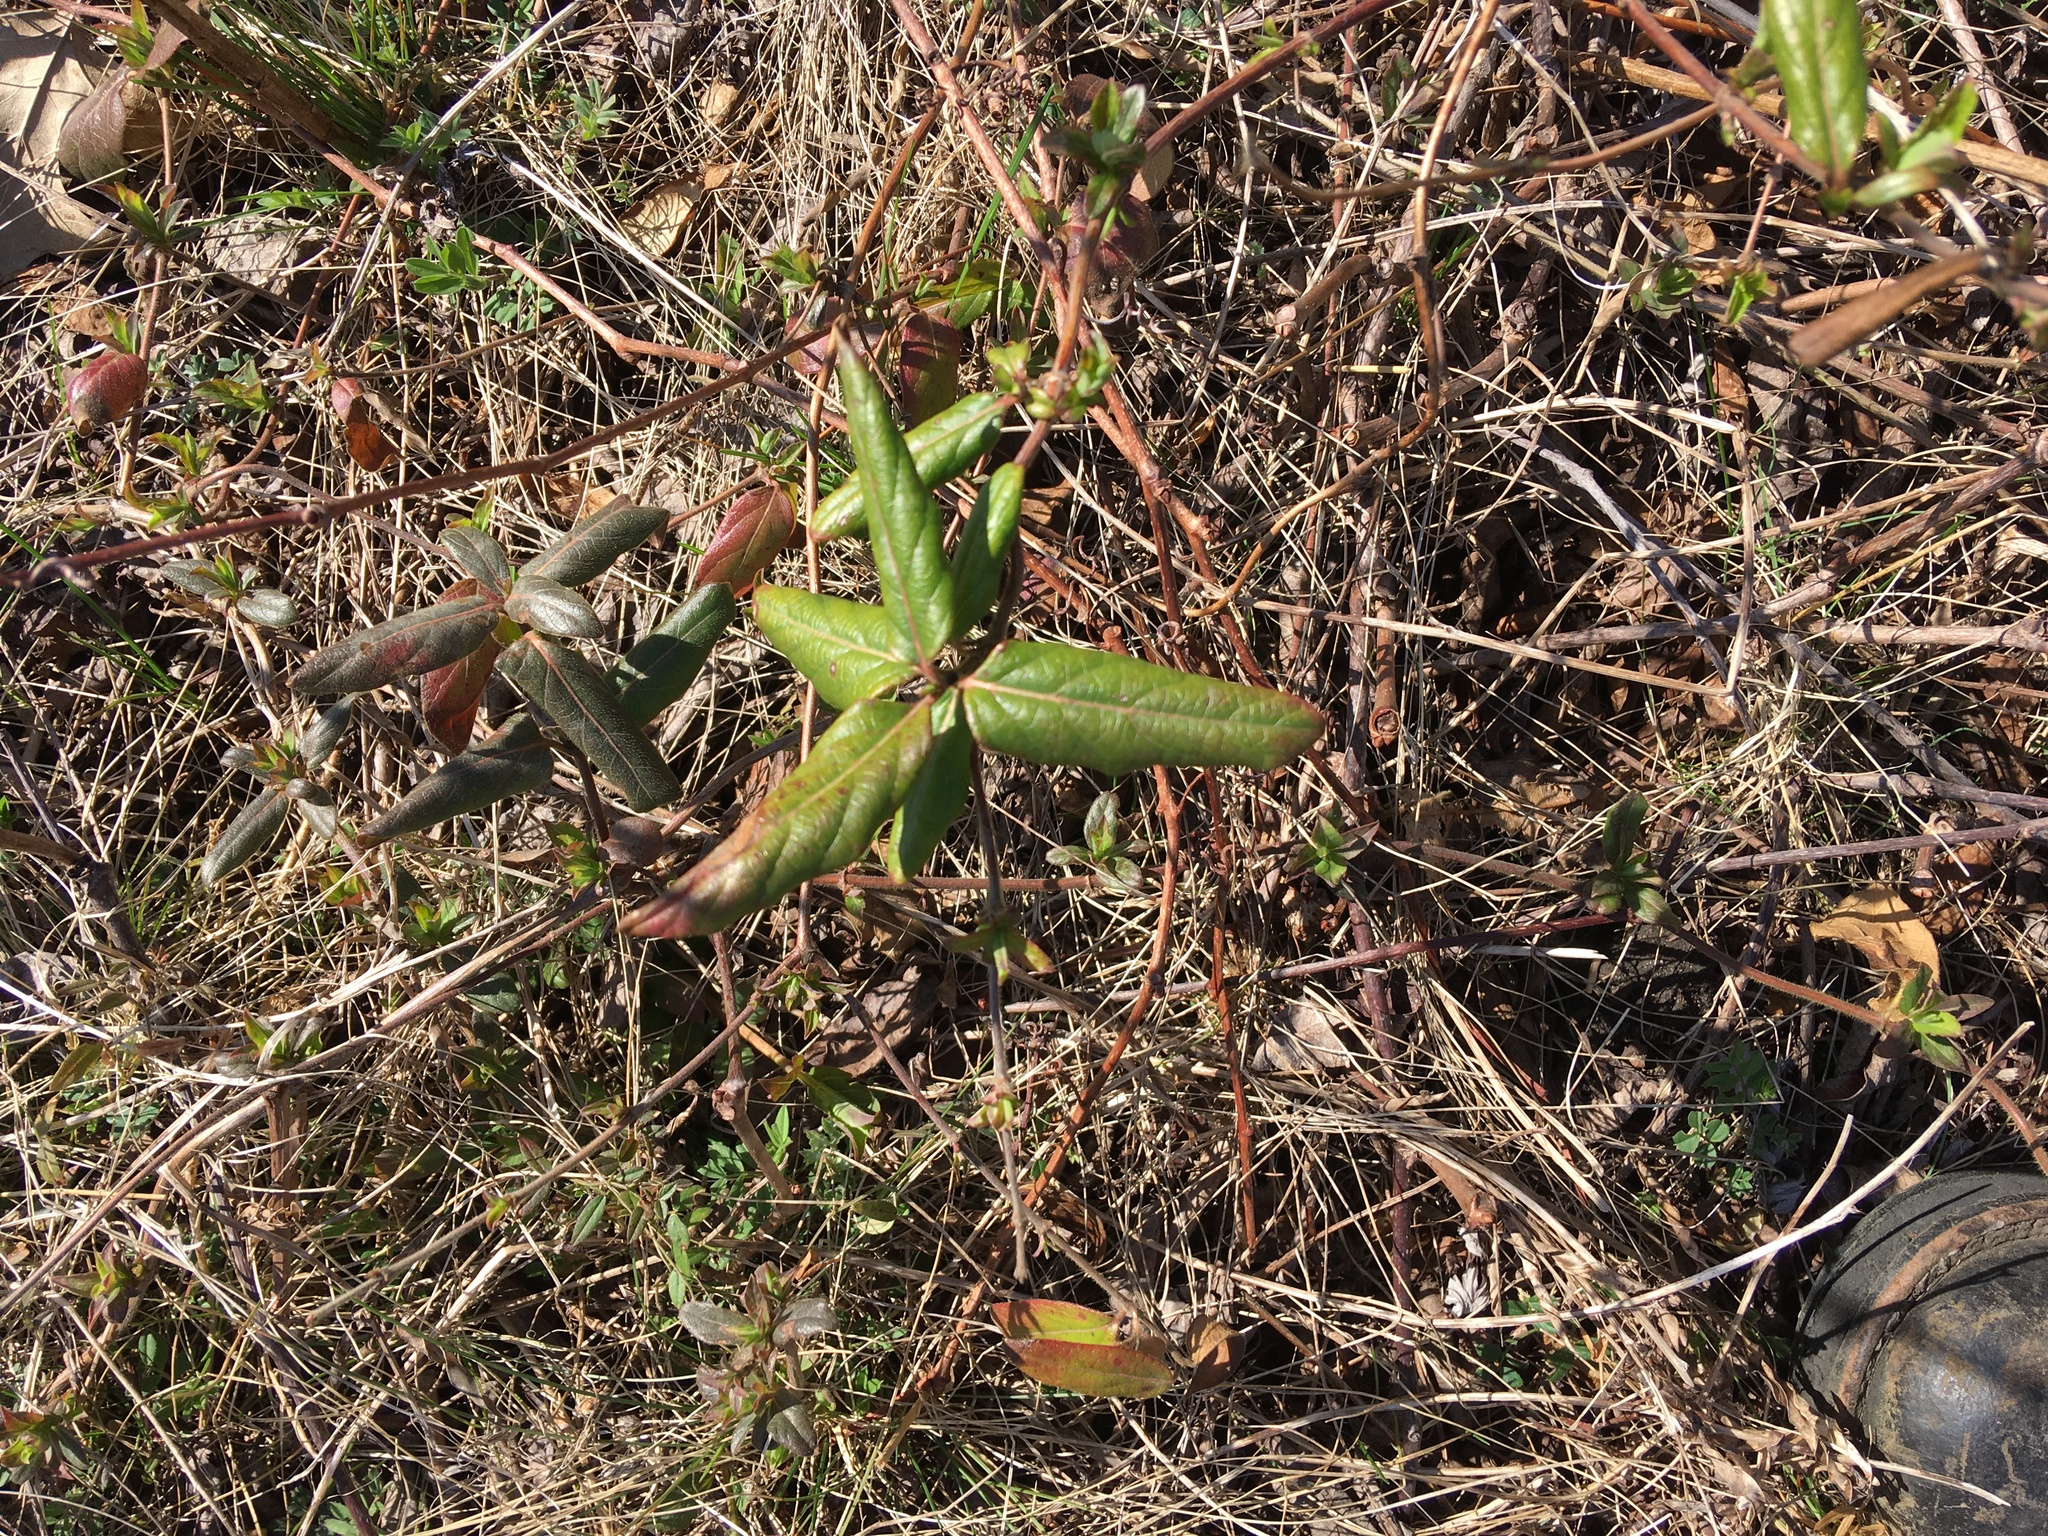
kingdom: Plantae
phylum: Tracheophyta
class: Magnoliopsida
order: Dipsacales
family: Caprifoliaceae
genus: Lonicera
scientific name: Lonicera japonica
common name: Japanese honeysuckle
